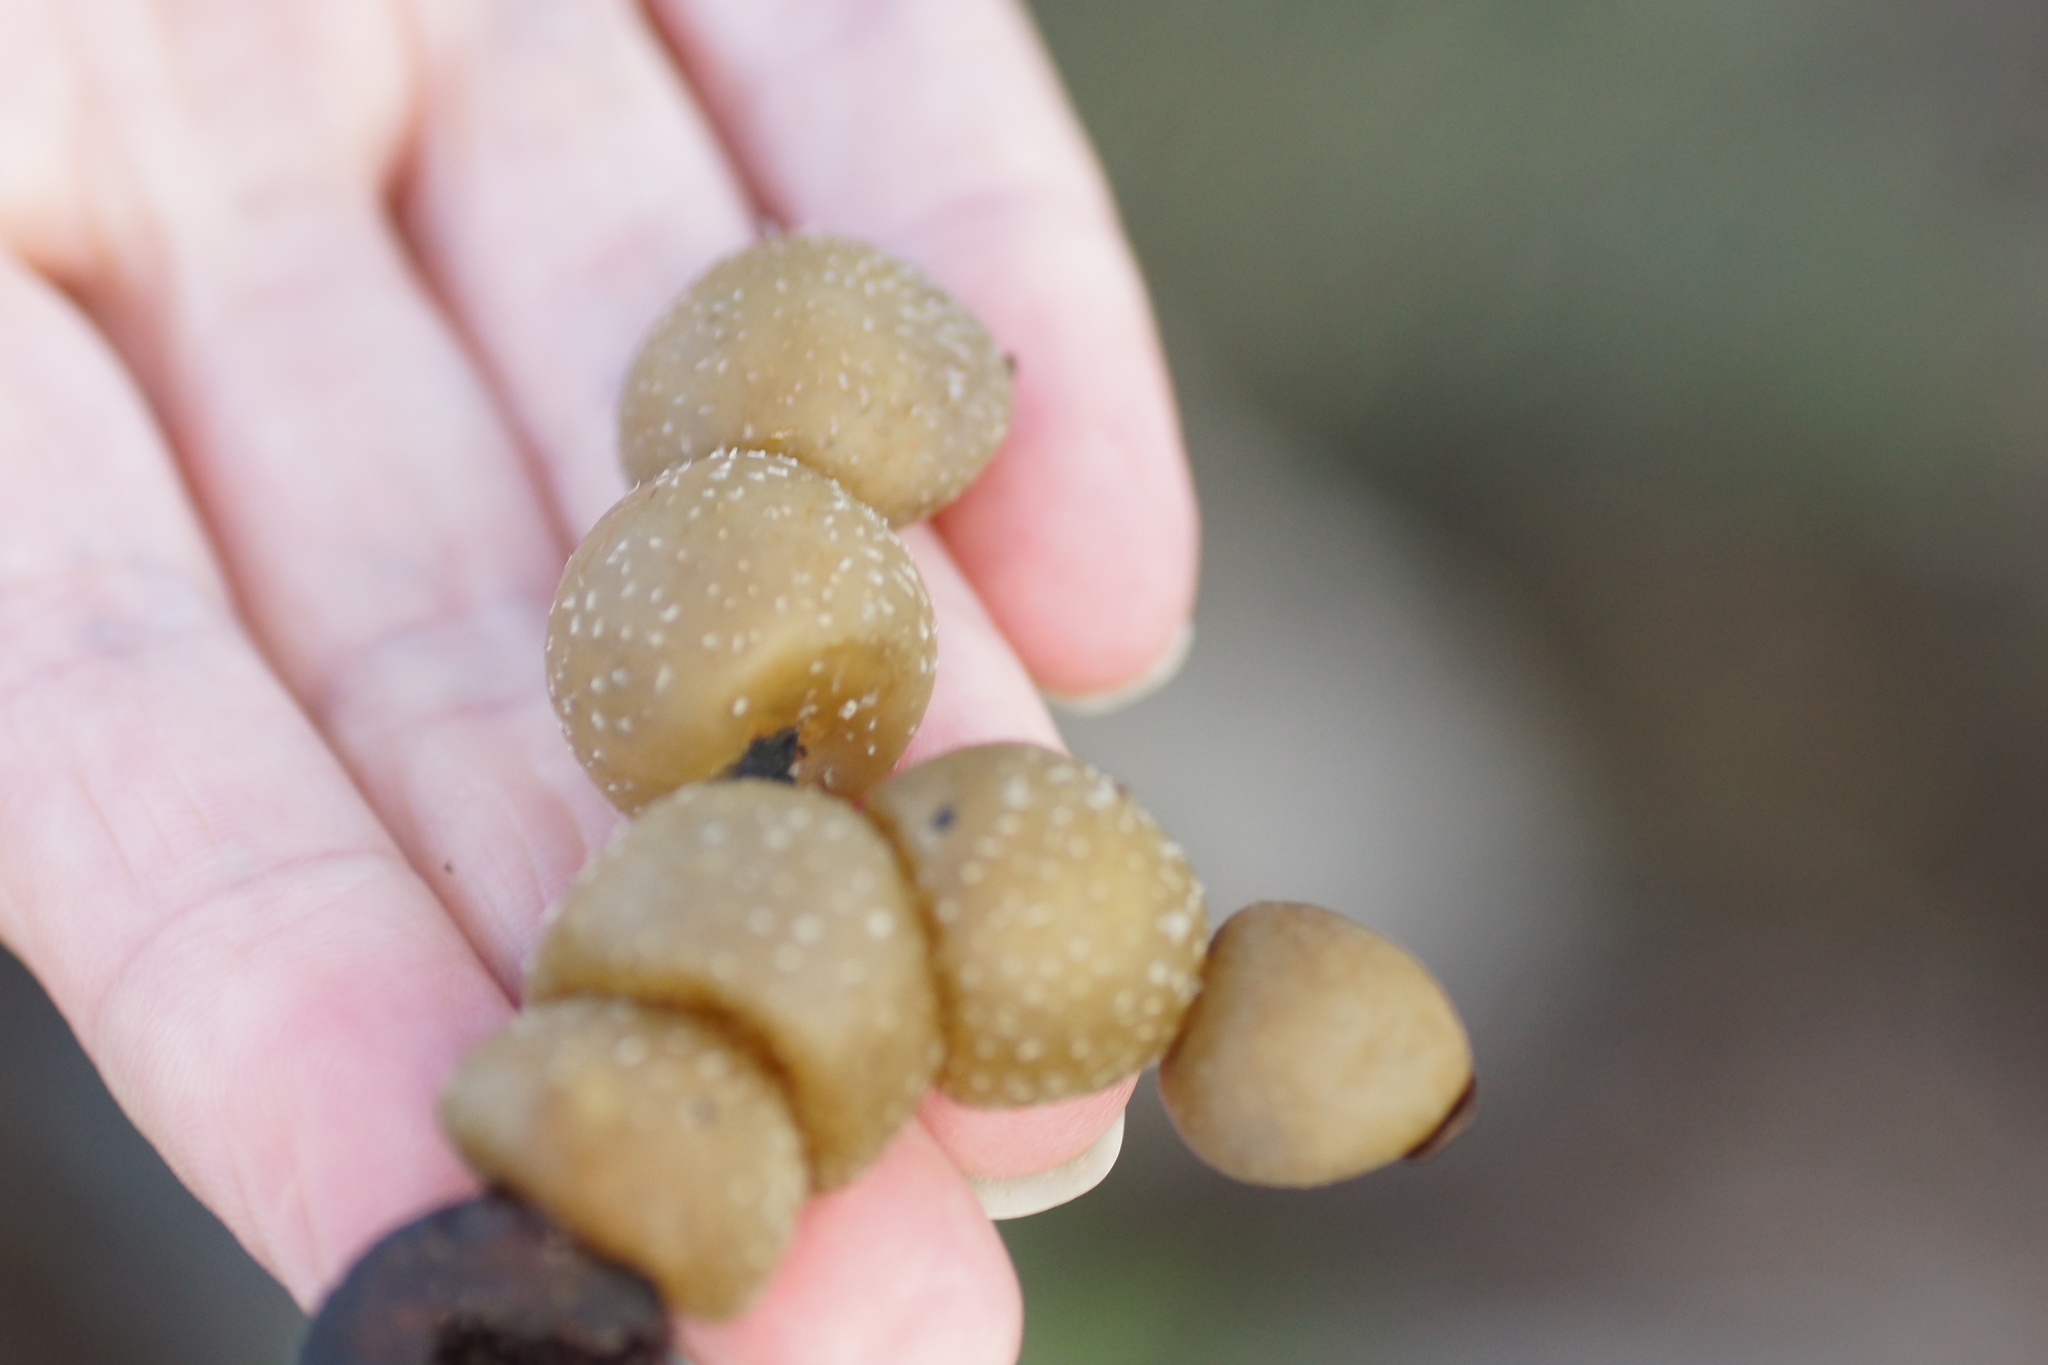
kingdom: Chromista
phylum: Ochrophyta
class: Phaeophyceae
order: Fucales
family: Hormosiraceae
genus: Hormosira
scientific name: Hormosira banksii
